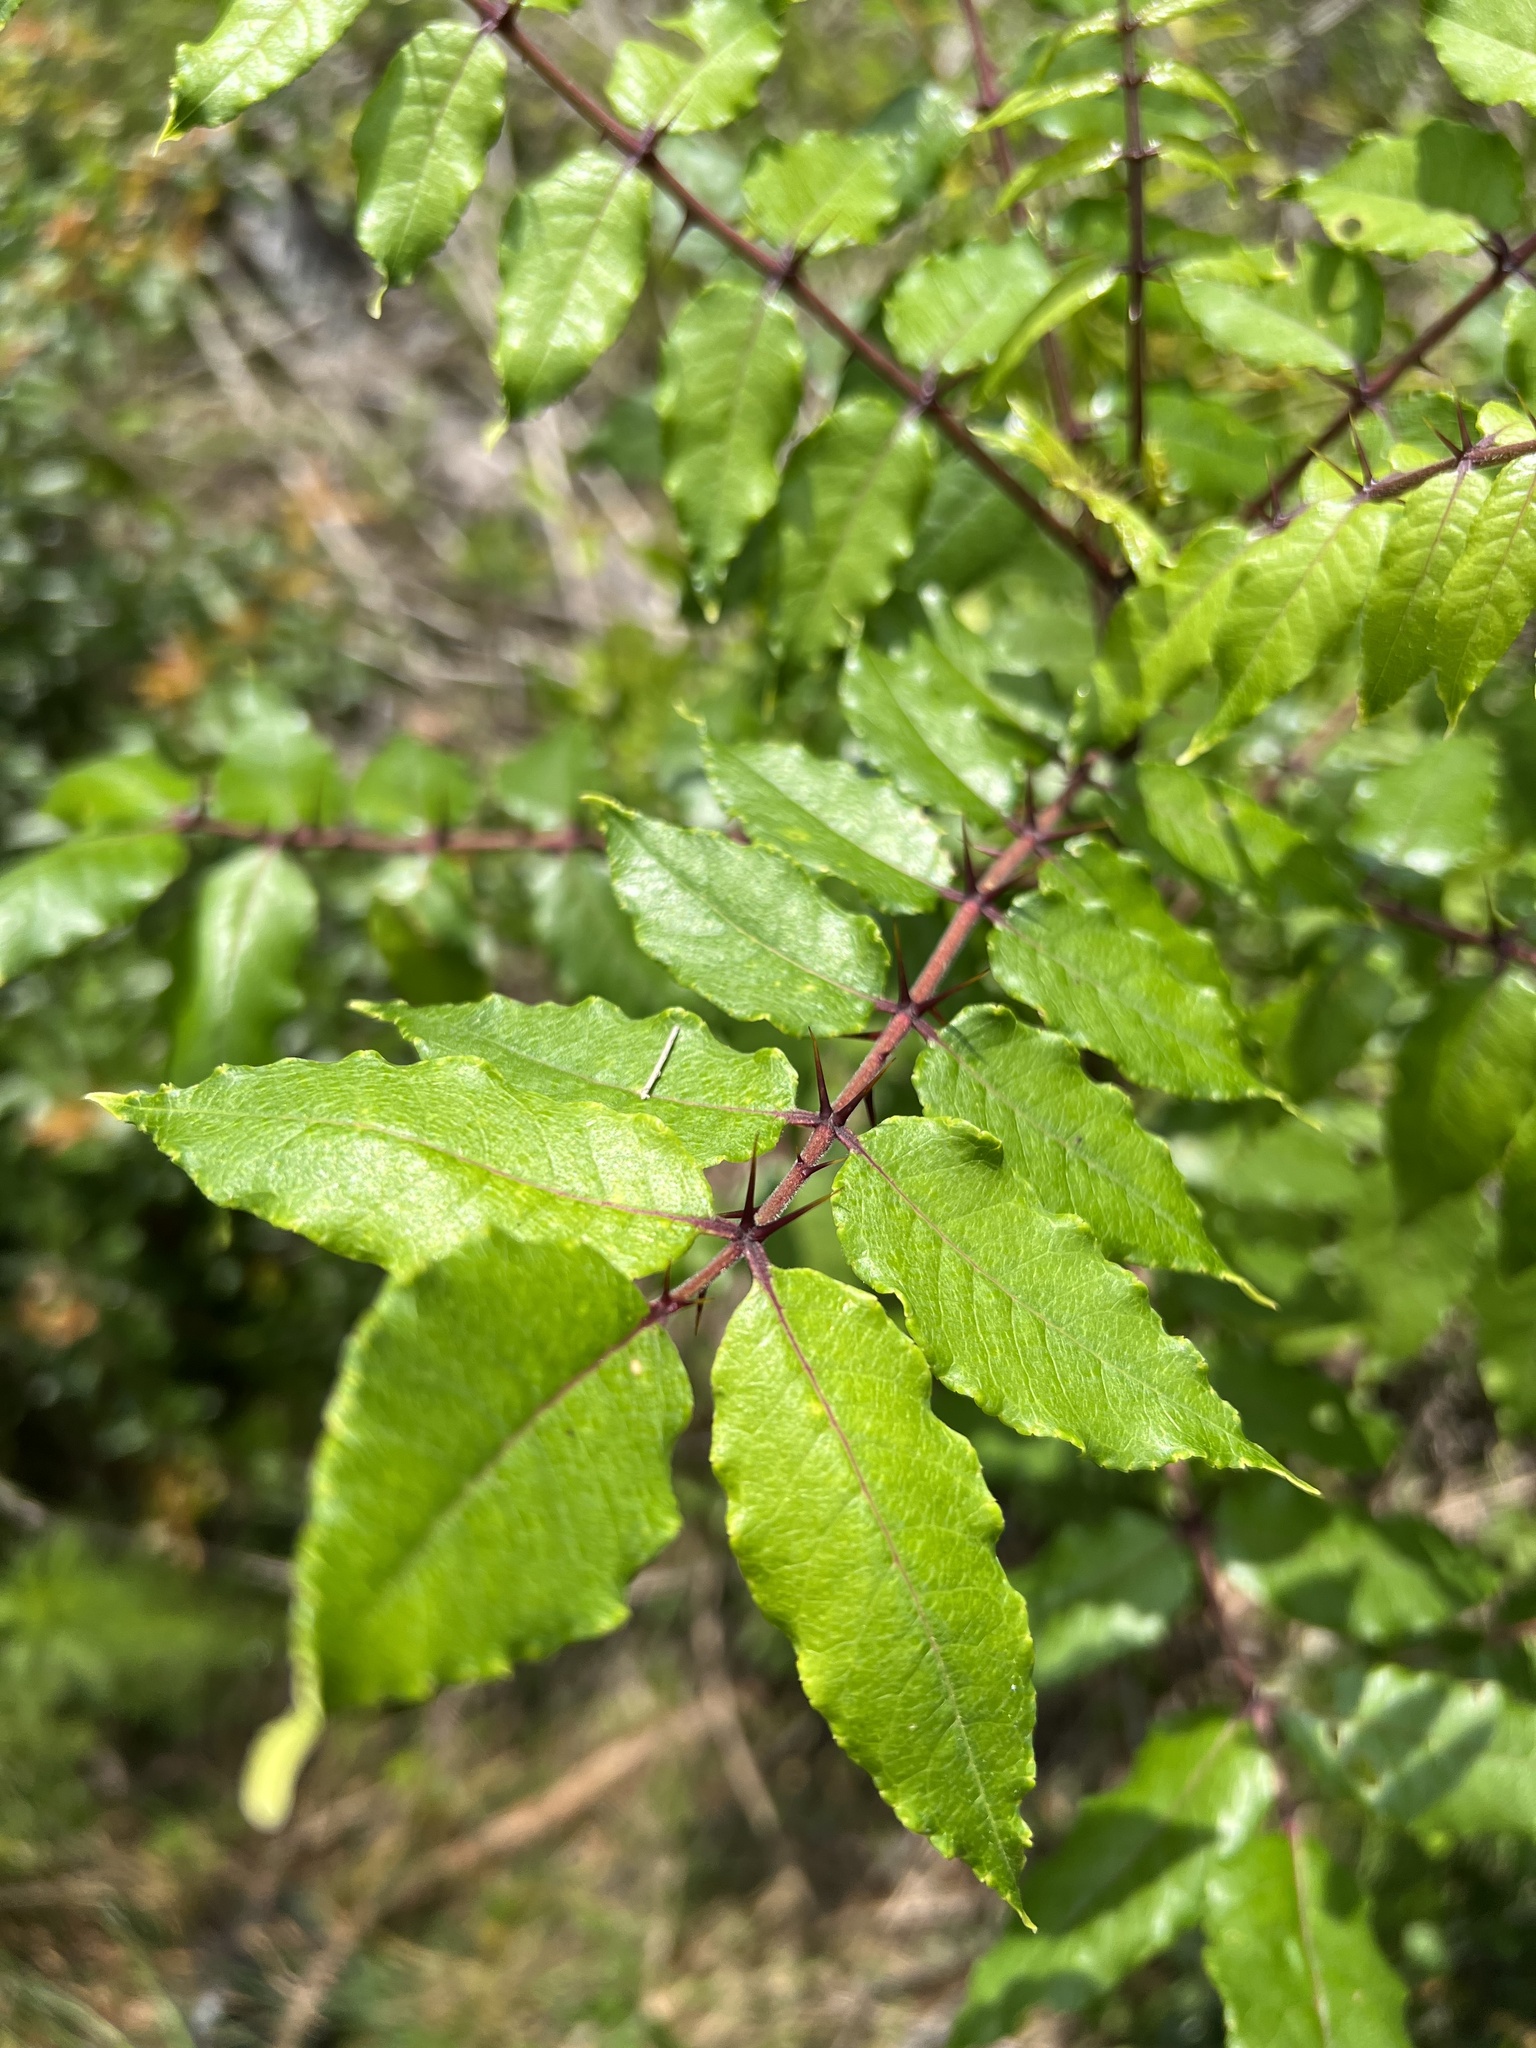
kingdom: Plantae
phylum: Tracheophyta
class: Magnoliopsida
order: Sapindales
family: Rutaceae
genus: Zanthoxylum
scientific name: Zanthoxylum clava-herculis
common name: Hercules'-club
